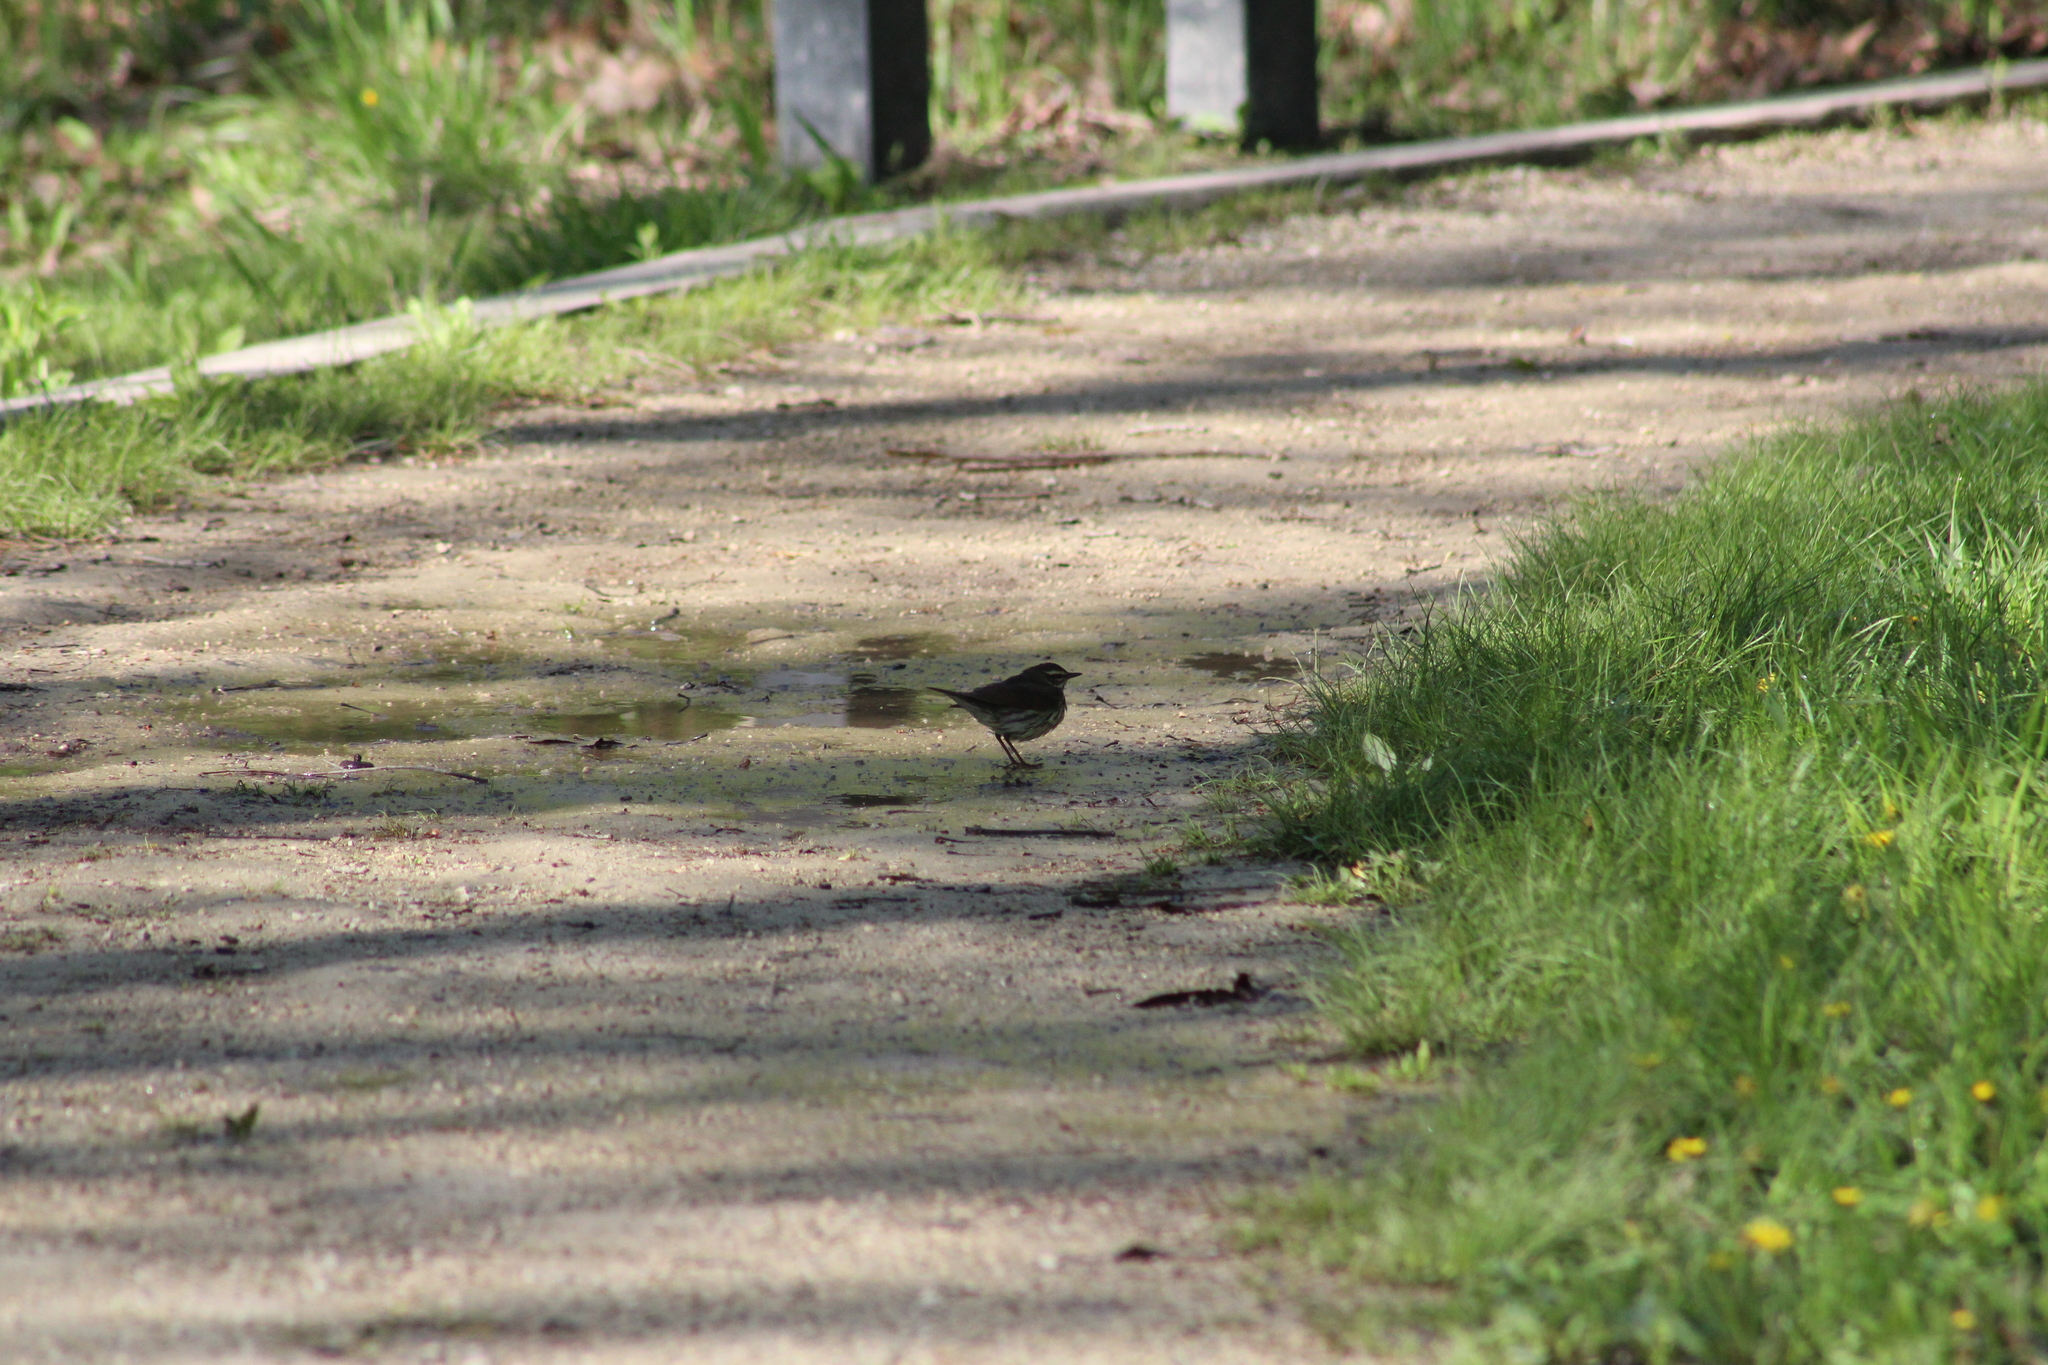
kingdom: Animalia
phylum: Chordata
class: Aves
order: Passeriformes
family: Parulidae
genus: Parkesia
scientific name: Parkesia noveboracensis
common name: Northern waterthrush
